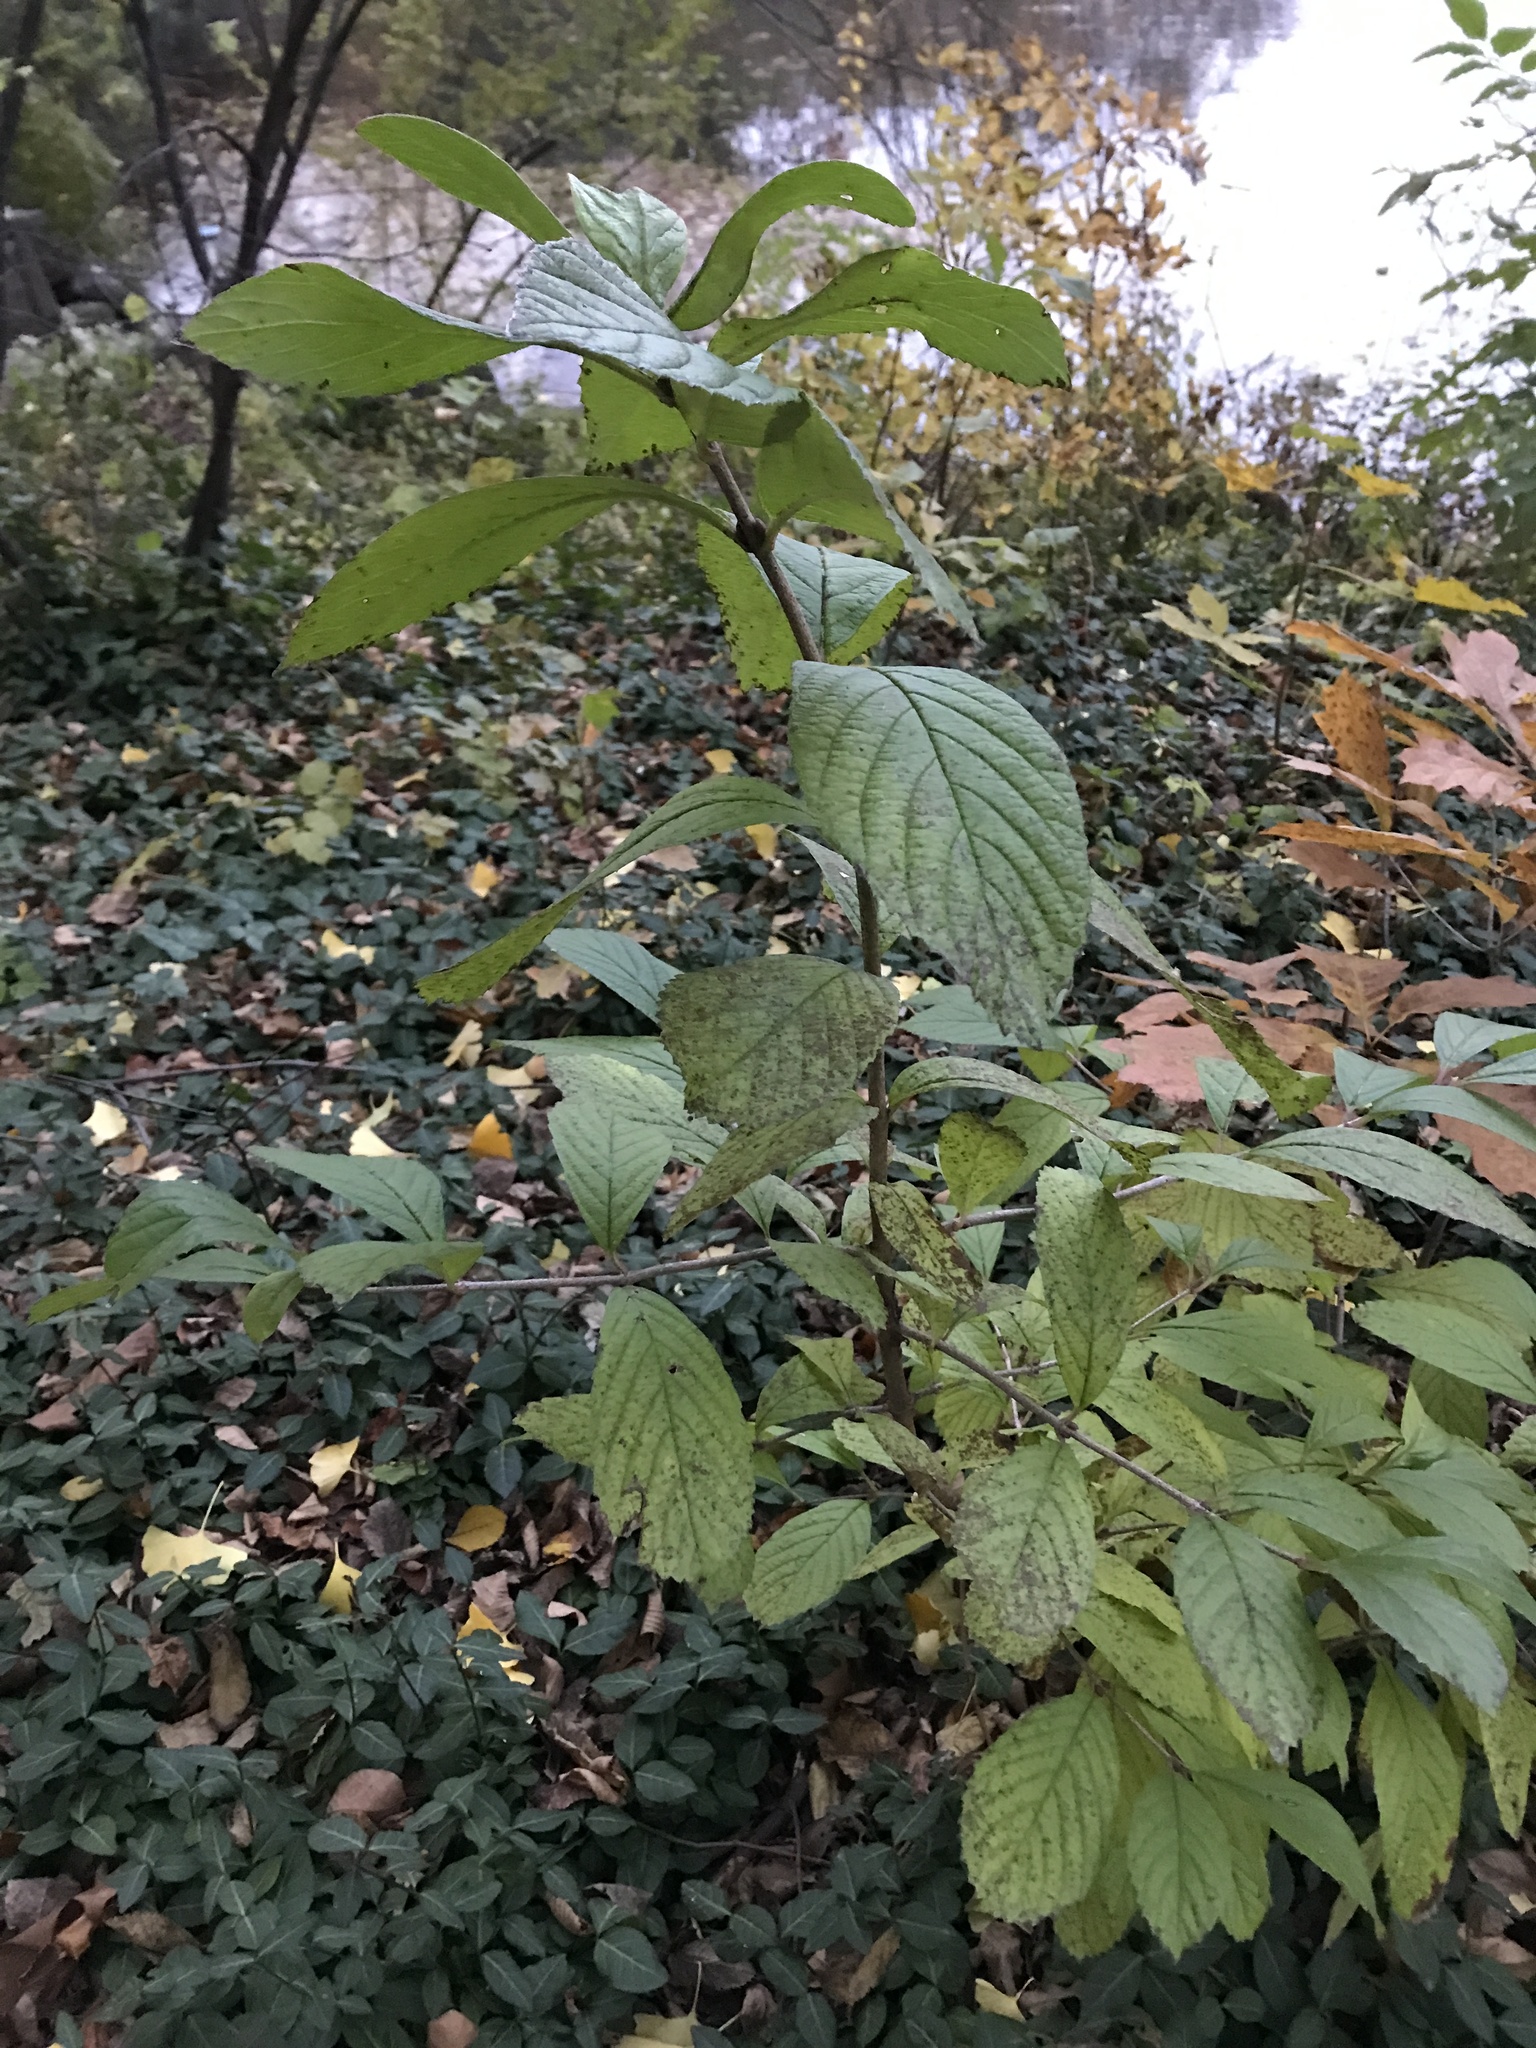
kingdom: Plantae
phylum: Tracheophyta
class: Magnoliopsida
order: Dipsacales
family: Viburnaceae
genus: Viburnum
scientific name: Viburnum sieboldii
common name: Siebold's arrowwood
